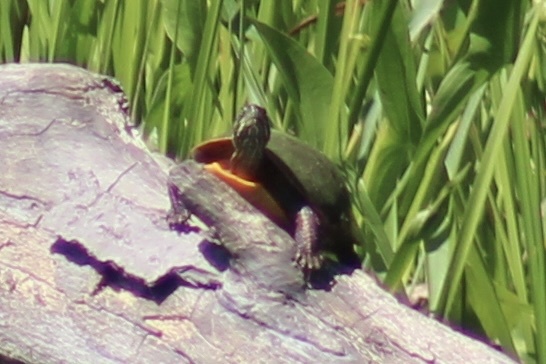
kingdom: Animalia
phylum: Chordata
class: Testudines
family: Emydidae
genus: Chrysemys
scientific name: Chrysemys picta
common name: Painted turtle
